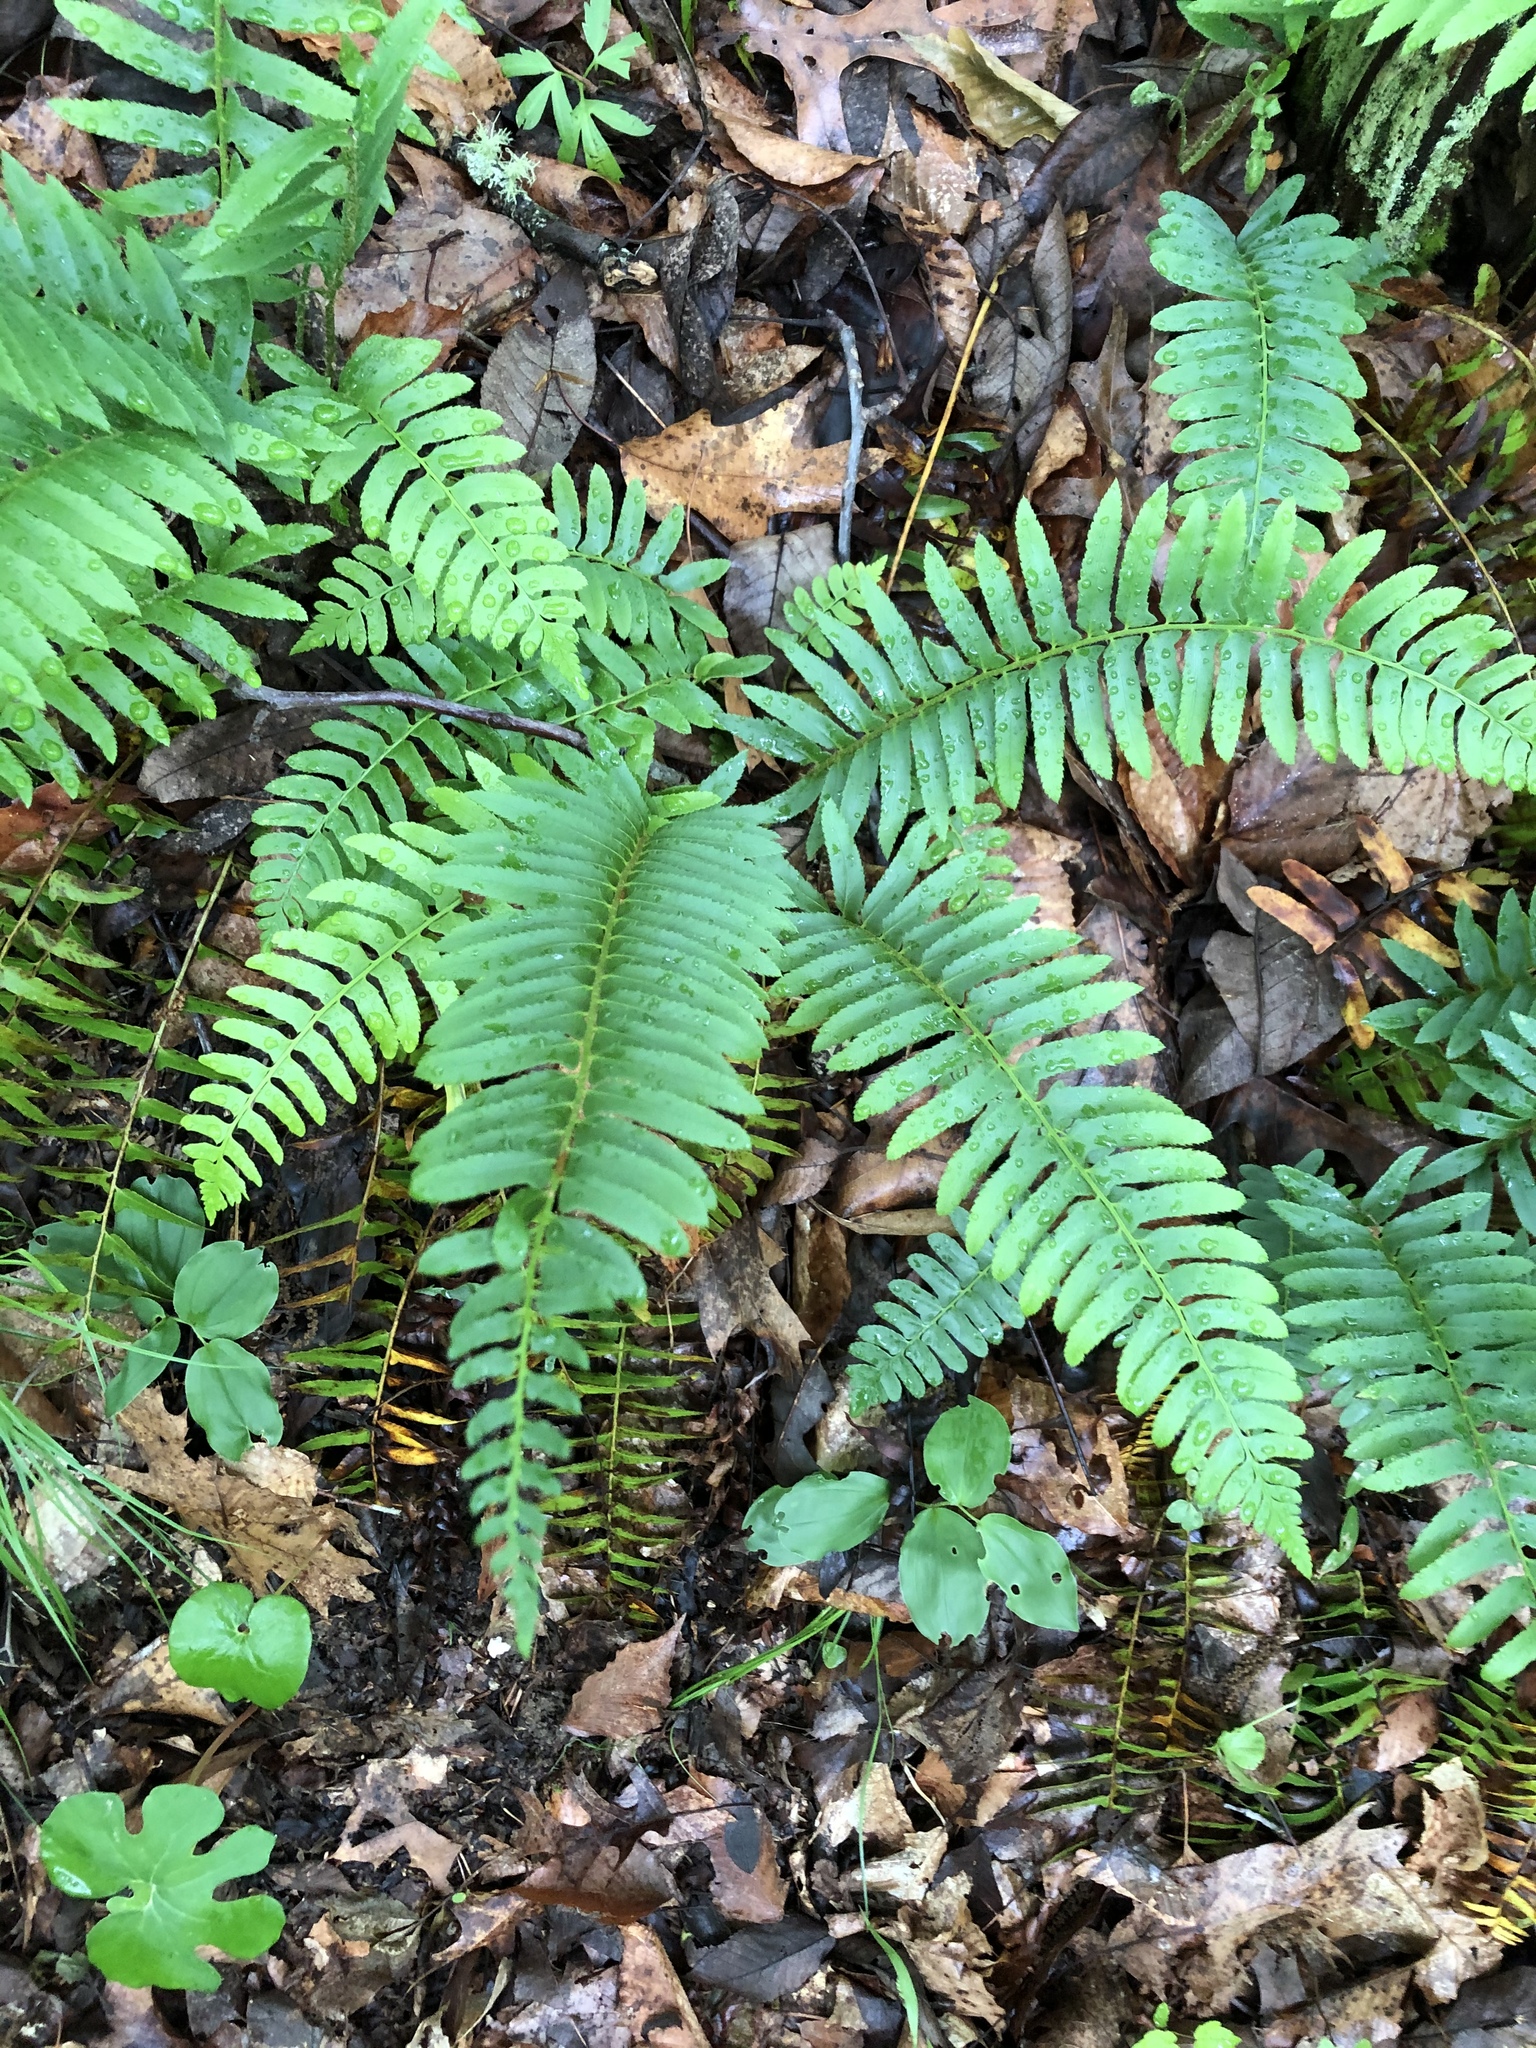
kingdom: Plantae
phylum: Tracheophyta
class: Polypodiopsida
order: Polypodiales
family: Dryopteridaceae
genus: Polystichum
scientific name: Polystichum acrostichoides
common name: Christmas fern
